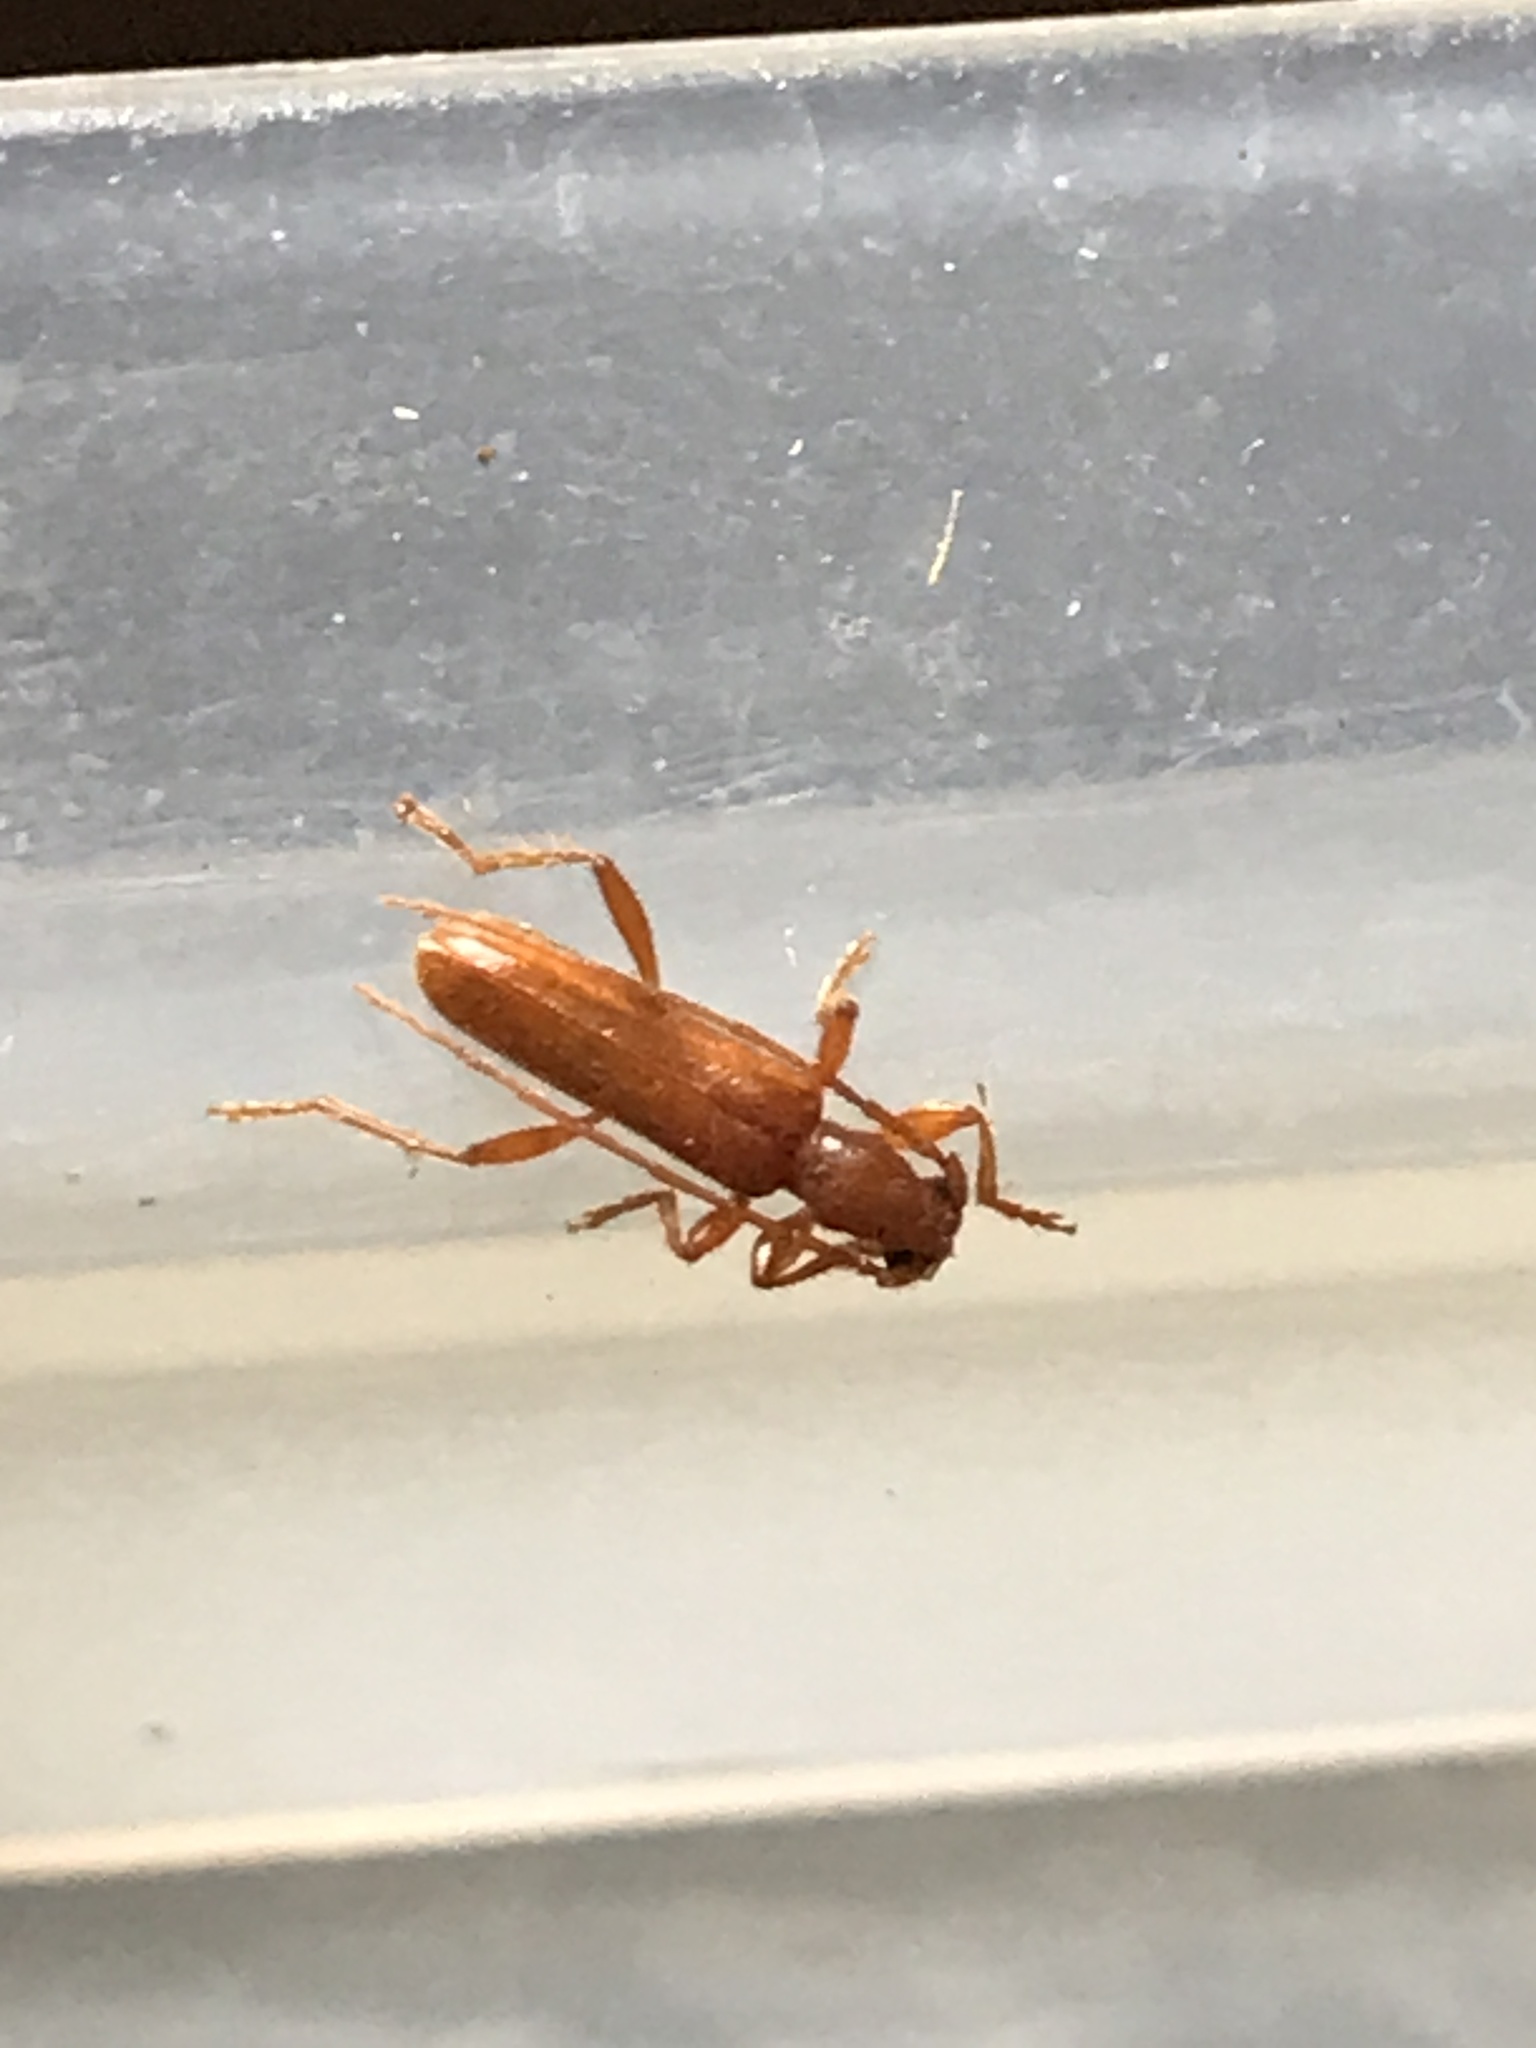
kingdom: Animalia
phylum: Arthropoda
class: Insecta
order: Coleoptera
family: Cerambycidae
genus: Axinopalpis
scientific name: Axinopalpis gracilis
